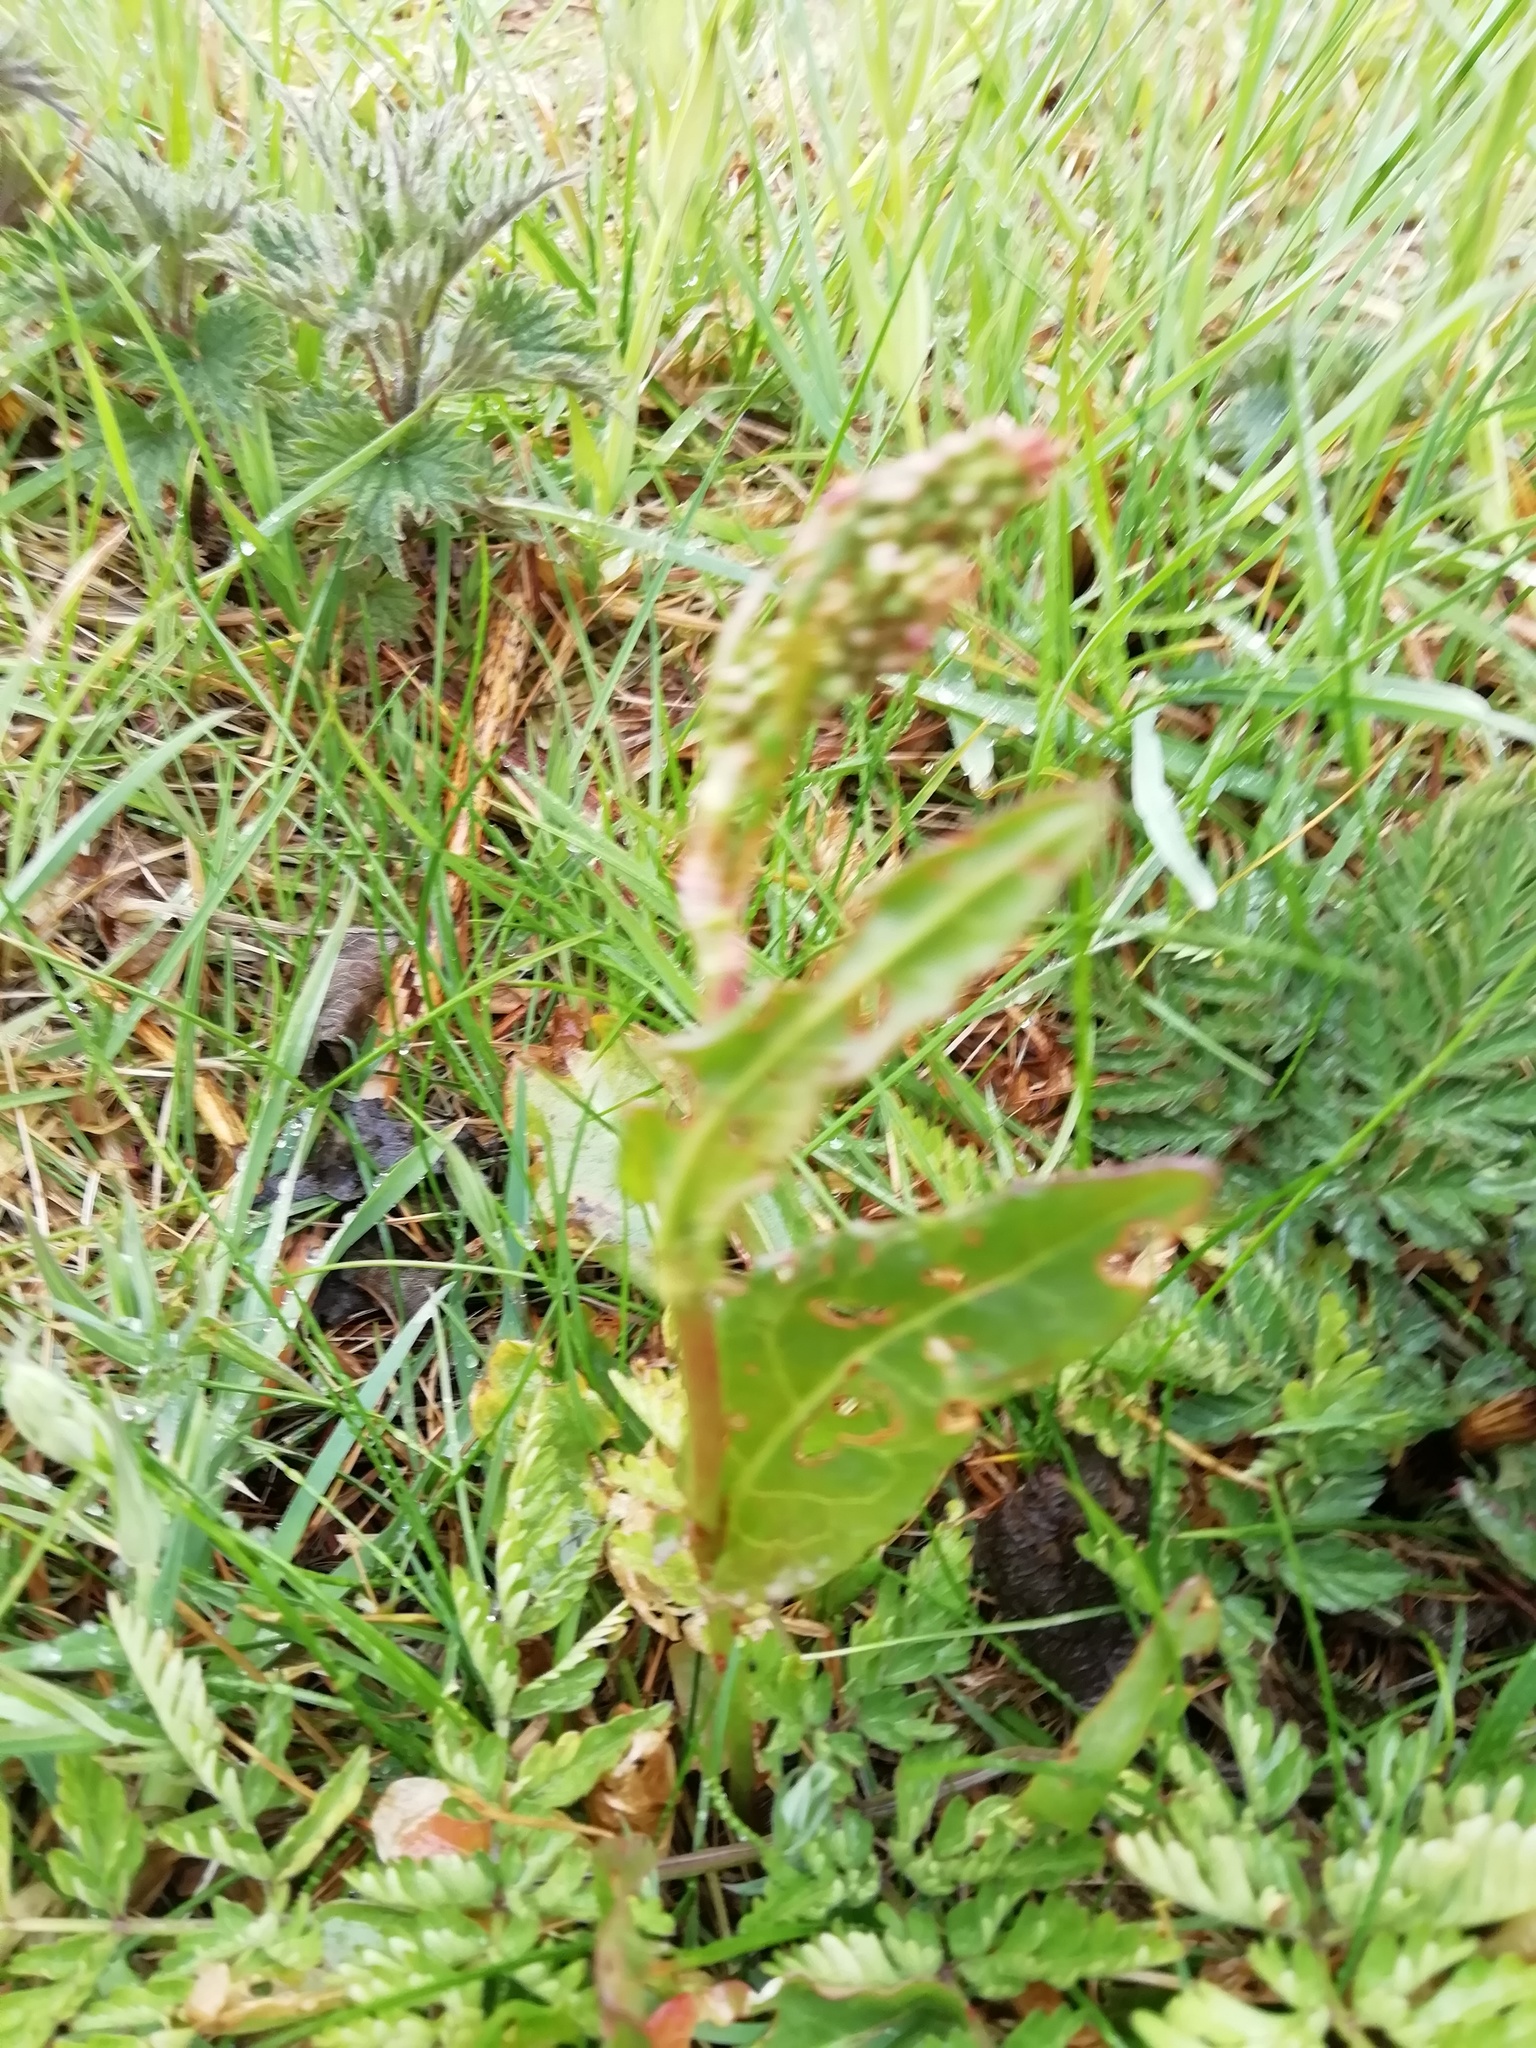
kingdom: Plantae
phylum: Tracheophyta
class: Magnoliopsida
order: Caryophyllales
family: Polygonaceae
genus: Rumex
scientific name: Rumex acetosa
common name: Garden sorrel
